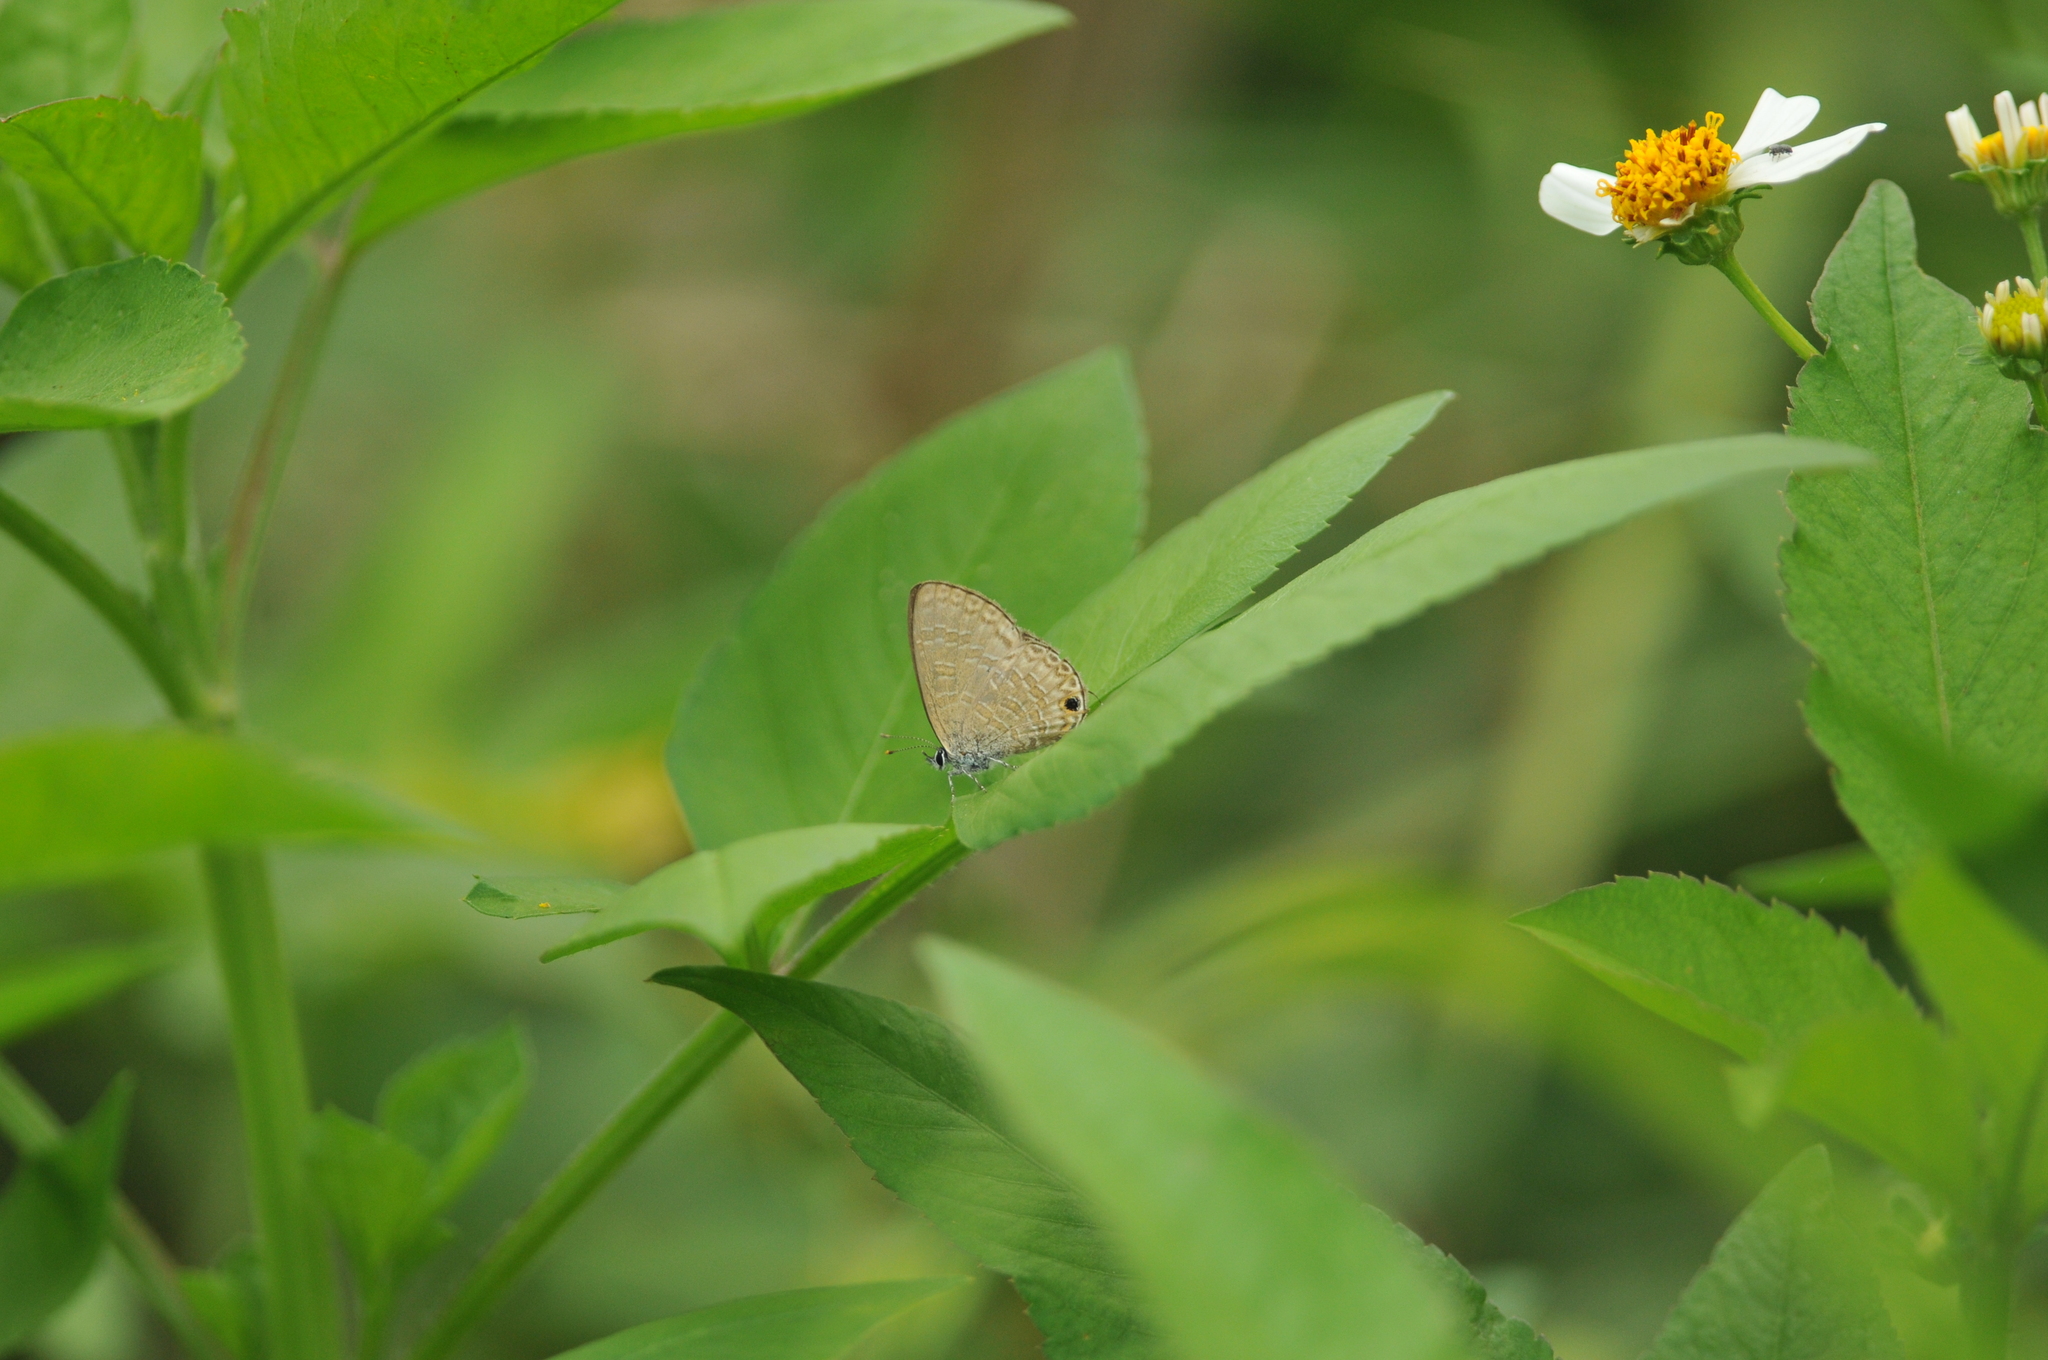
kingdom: Animalia
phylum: Arthropoda
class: Insecta
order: Lepidoptera
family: Lycaenidae
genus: Prosotas
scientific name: Prosotas nora
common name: Common line blue
